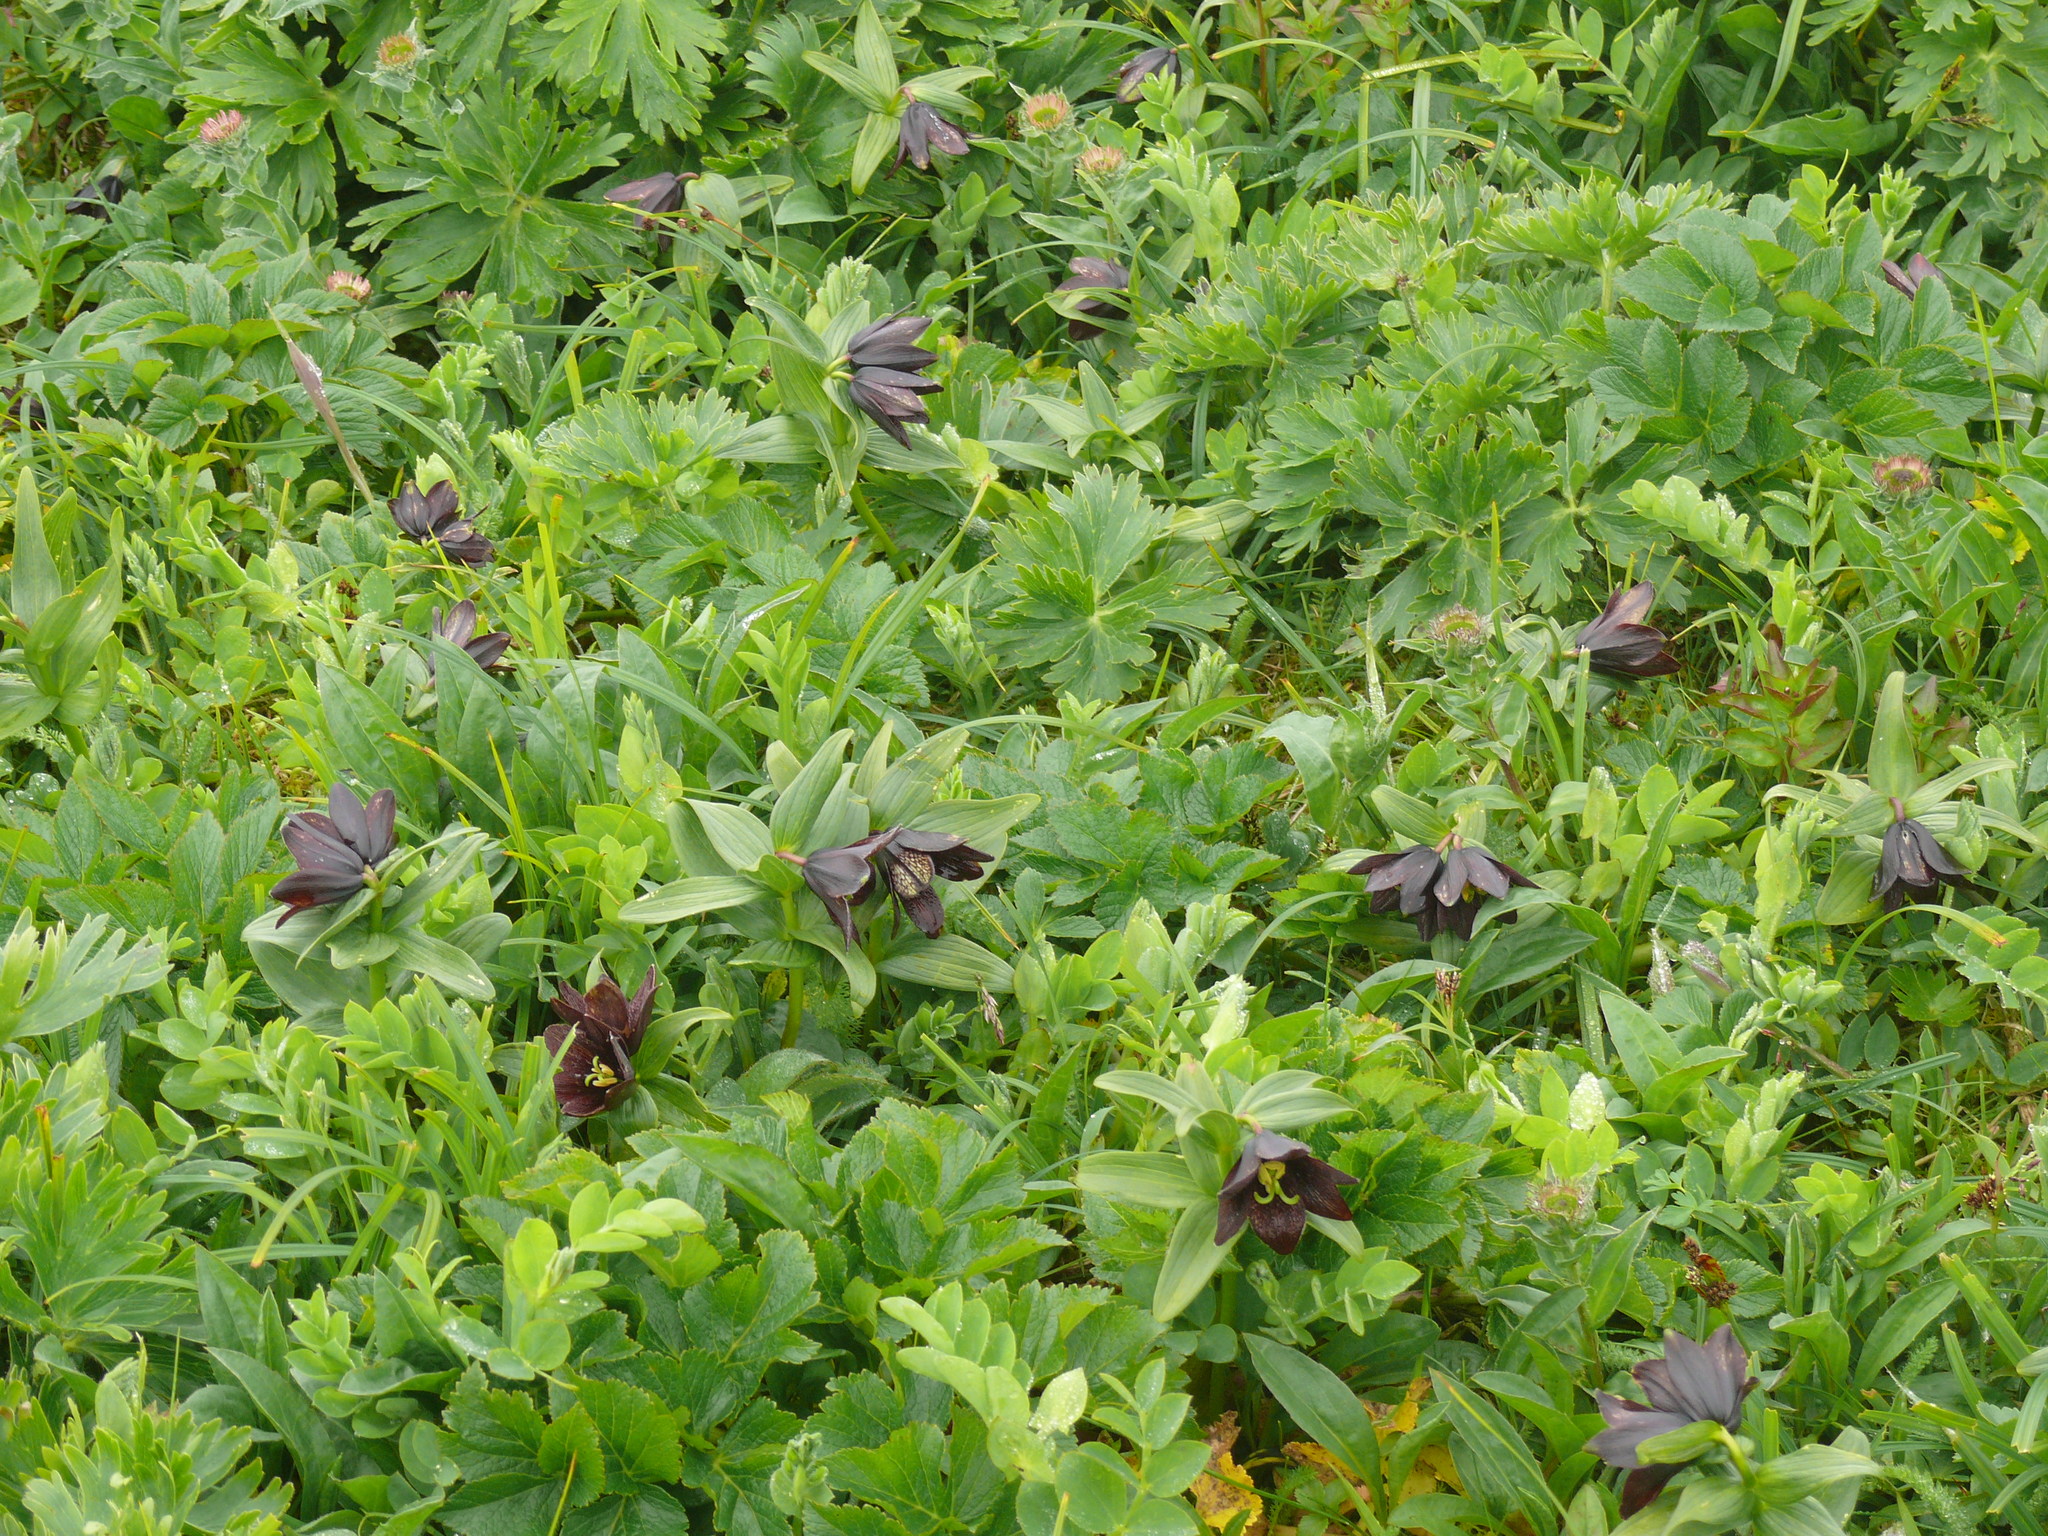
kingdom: Plantae
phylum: Tracheophyta
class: Liliopsida
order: Liliales
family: Liliaceae
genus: Fritillaria
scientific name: Fritillaria camschatcensis
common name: Kamchatka fritillary
